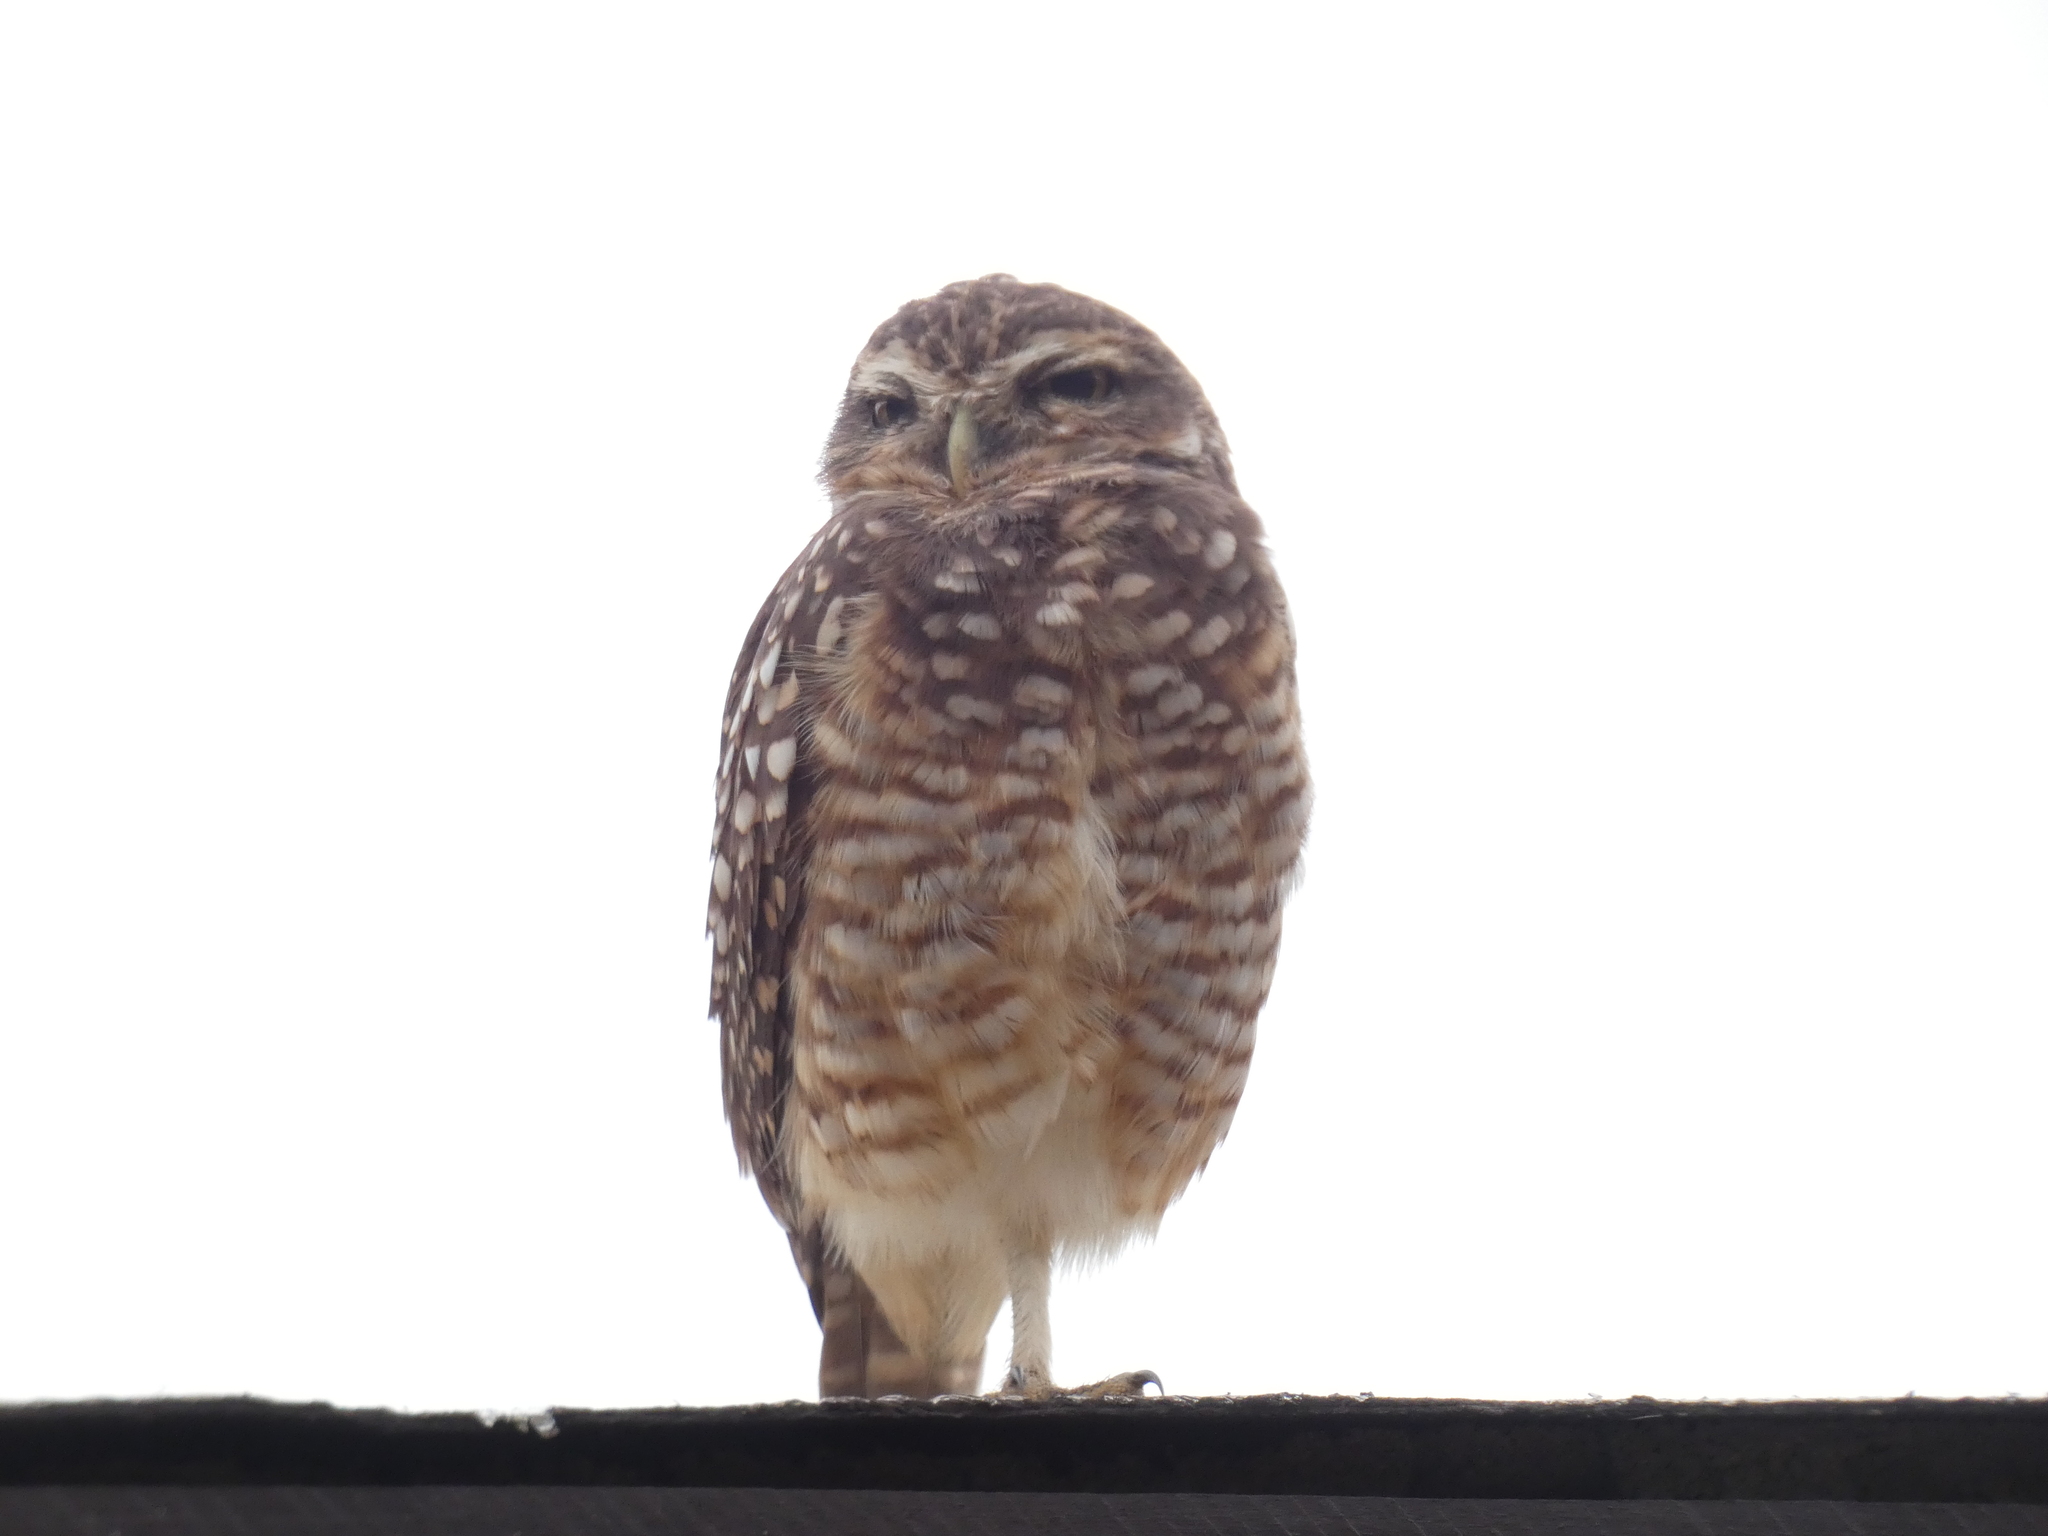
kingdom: Animalia
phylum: Chordata
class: Aves
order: Strigiformes
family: Strigidae
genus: Athene
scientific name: Athene cunicularia
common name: Burrowing owl
